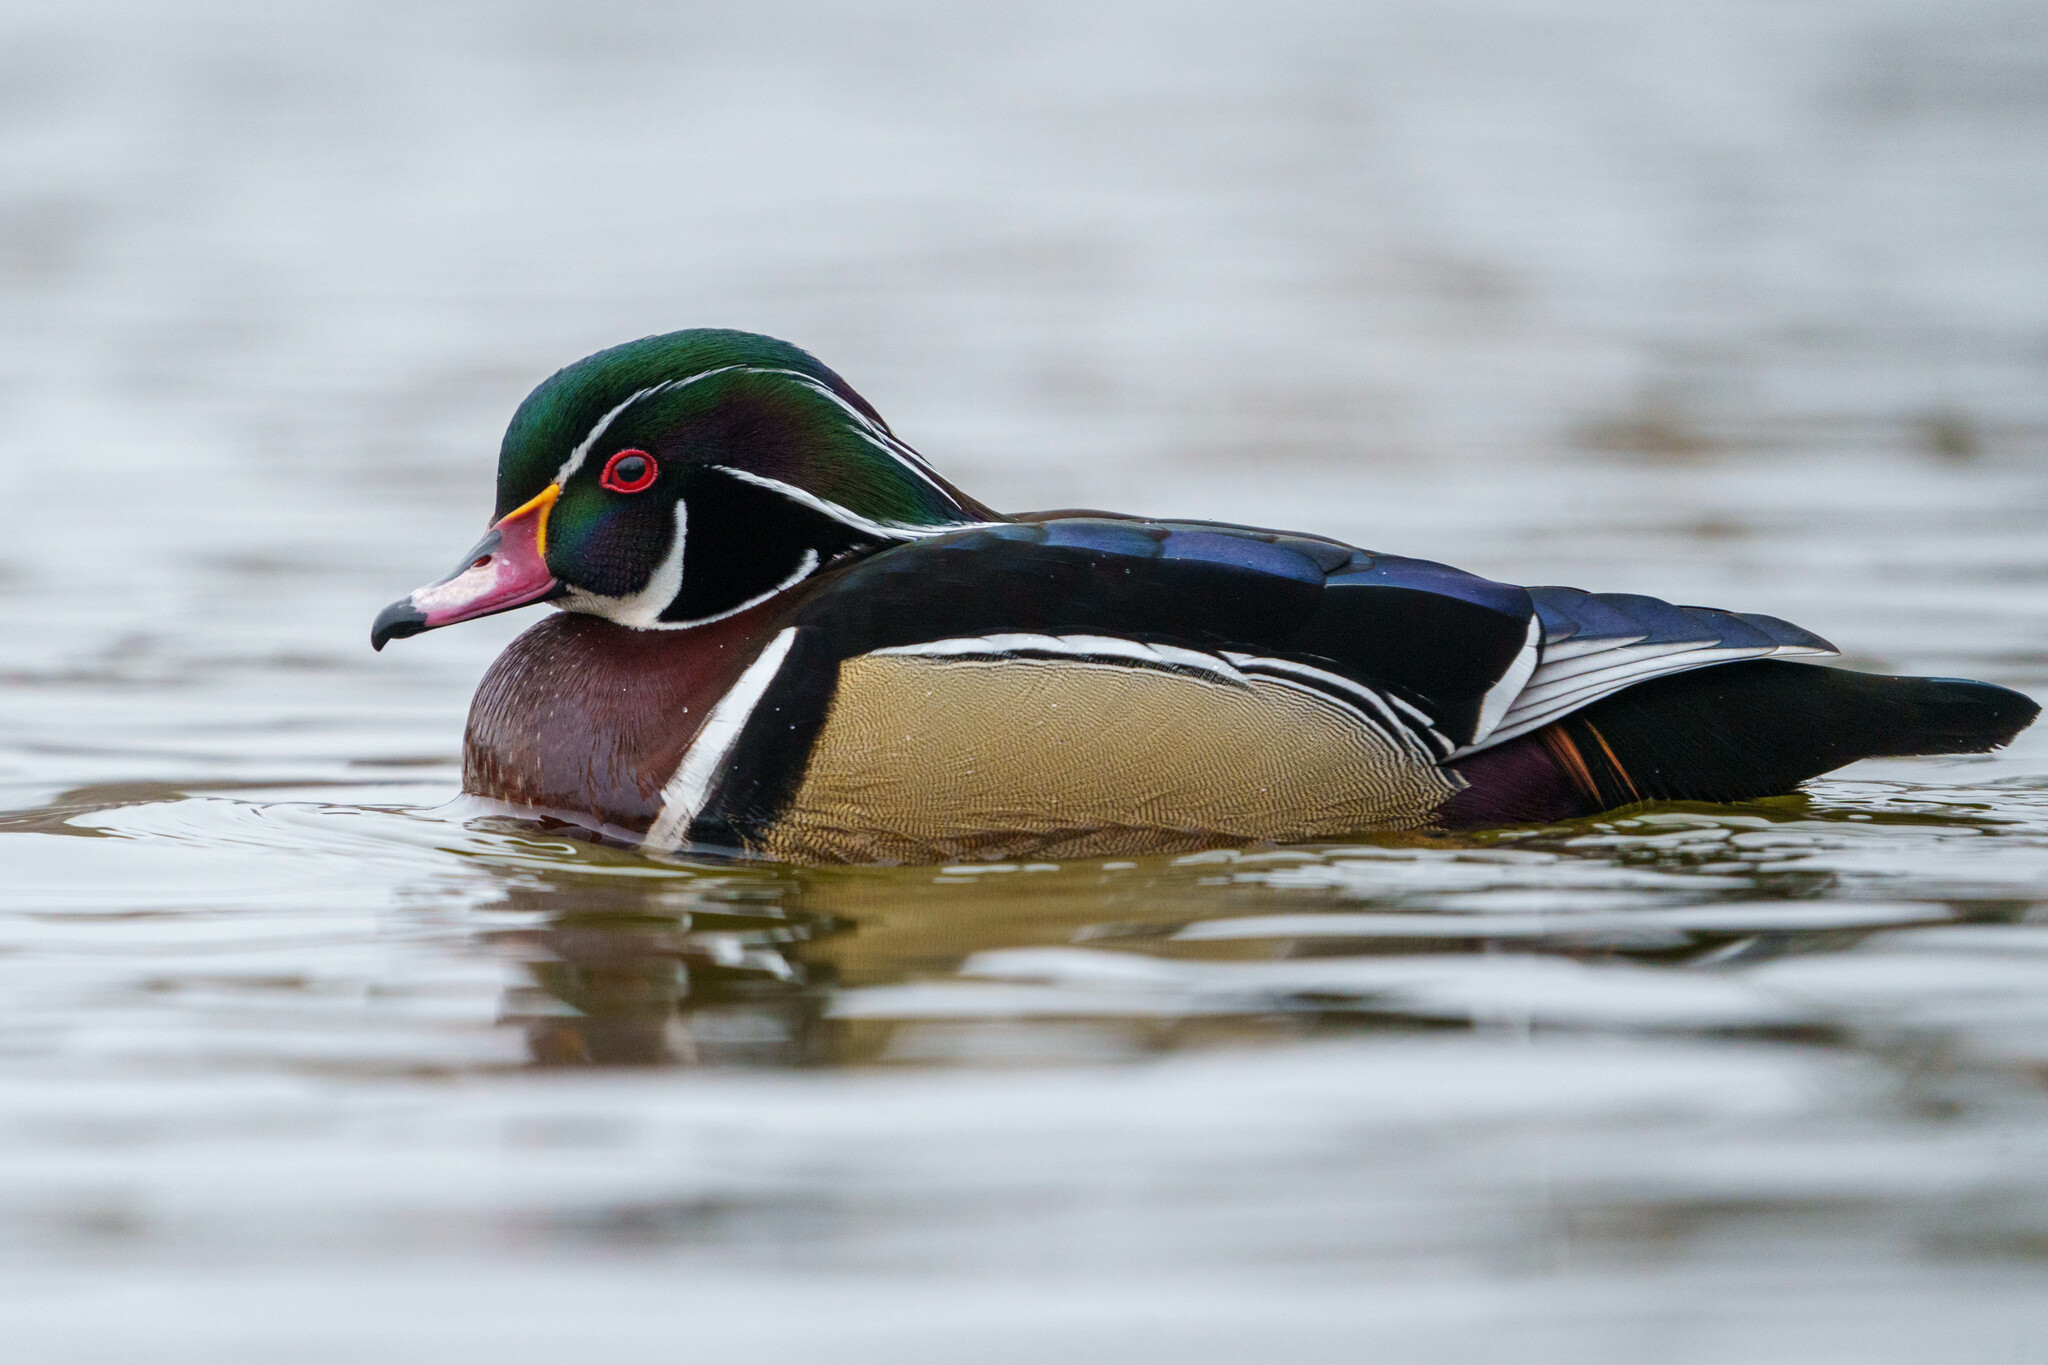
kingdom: Animalia
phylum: Chordata
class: Aves
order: Anseriformes
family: Anatidae
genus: Aix
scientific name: Aix sponsa
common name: Wood duck
